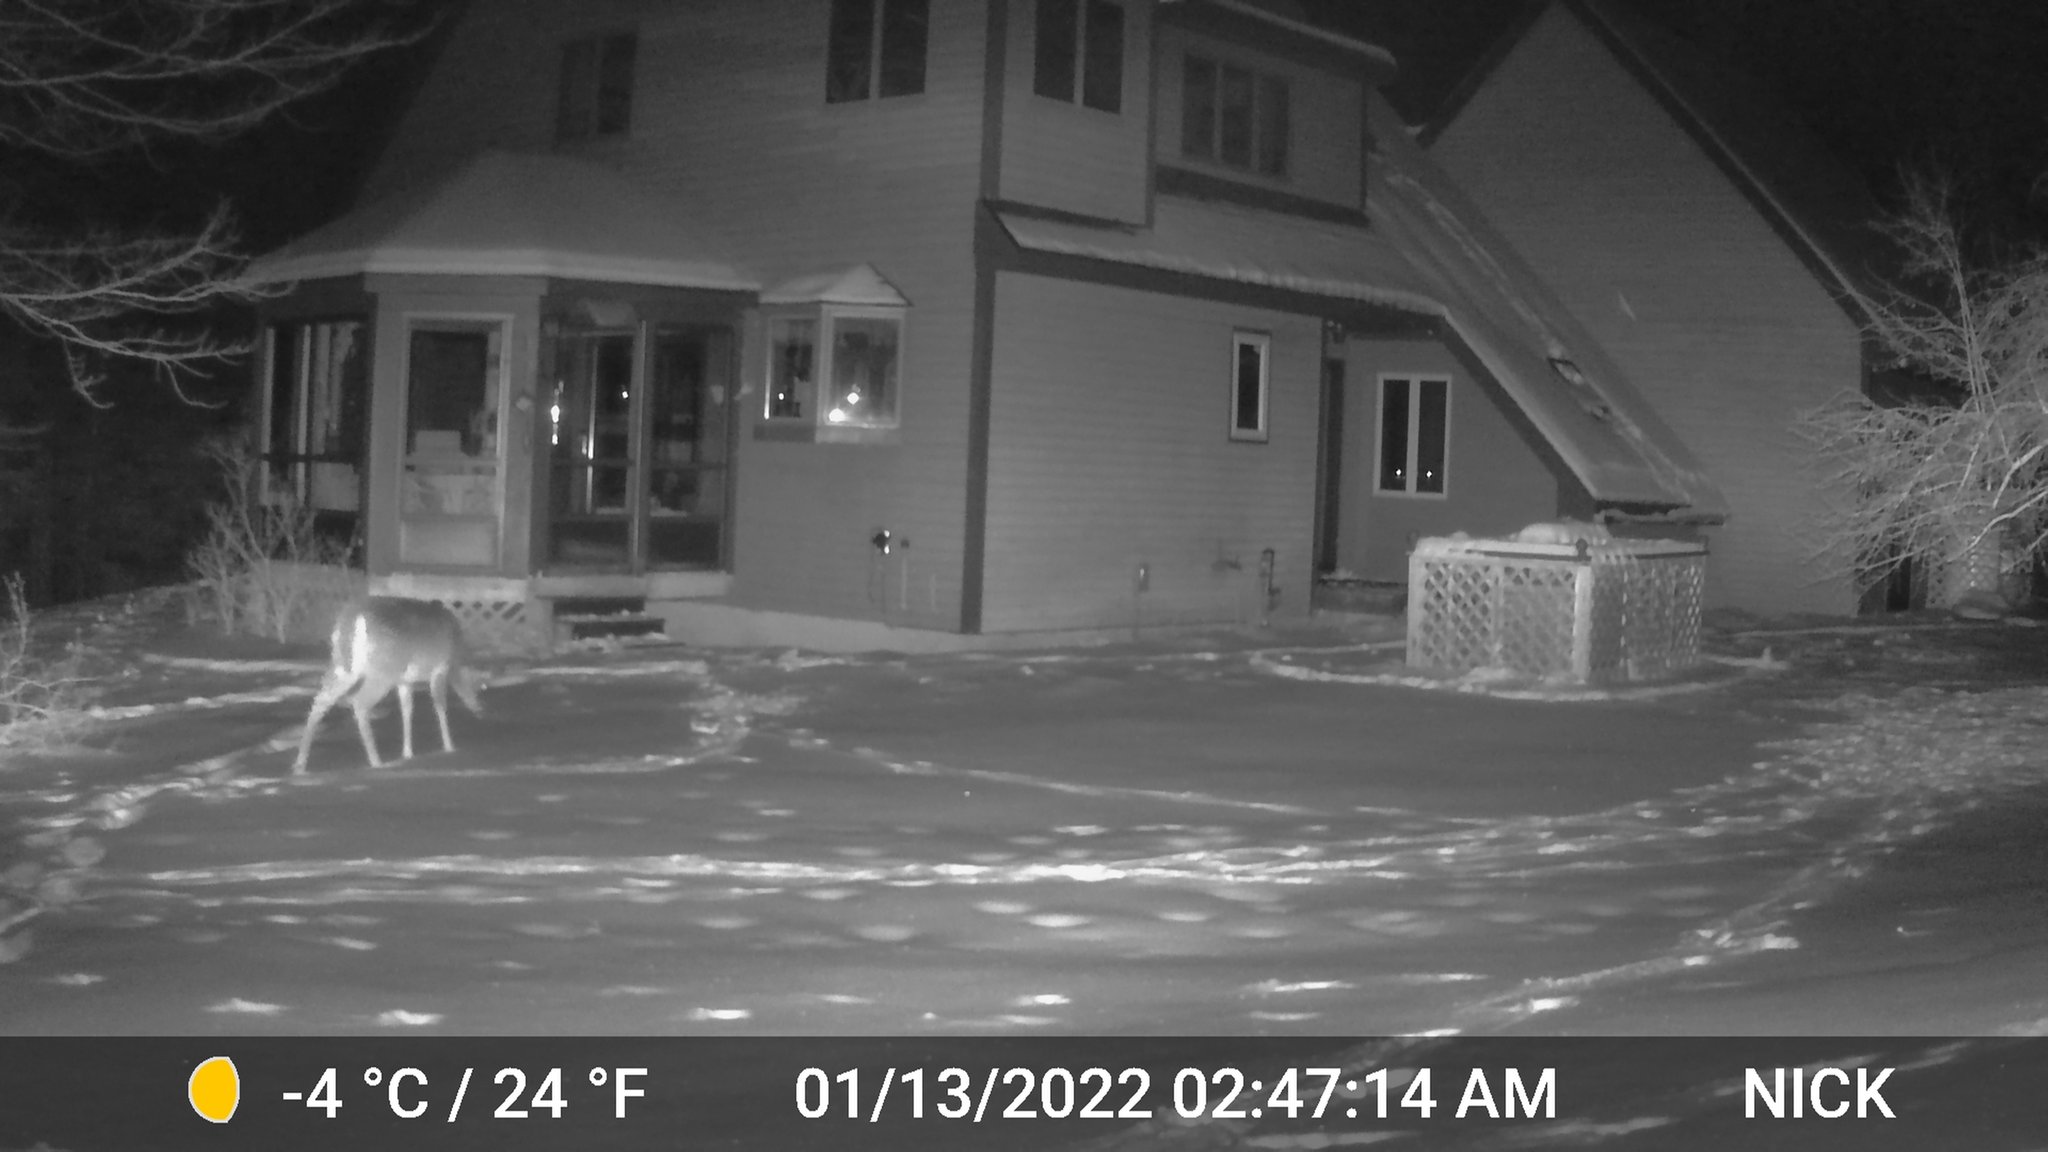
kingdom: Animalia
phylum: Chordata
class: Mammalia
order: Artiodactyla
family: Cervidae
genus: Odocoileus
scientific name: Odocoileus virginianus
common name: White-tailed deer
